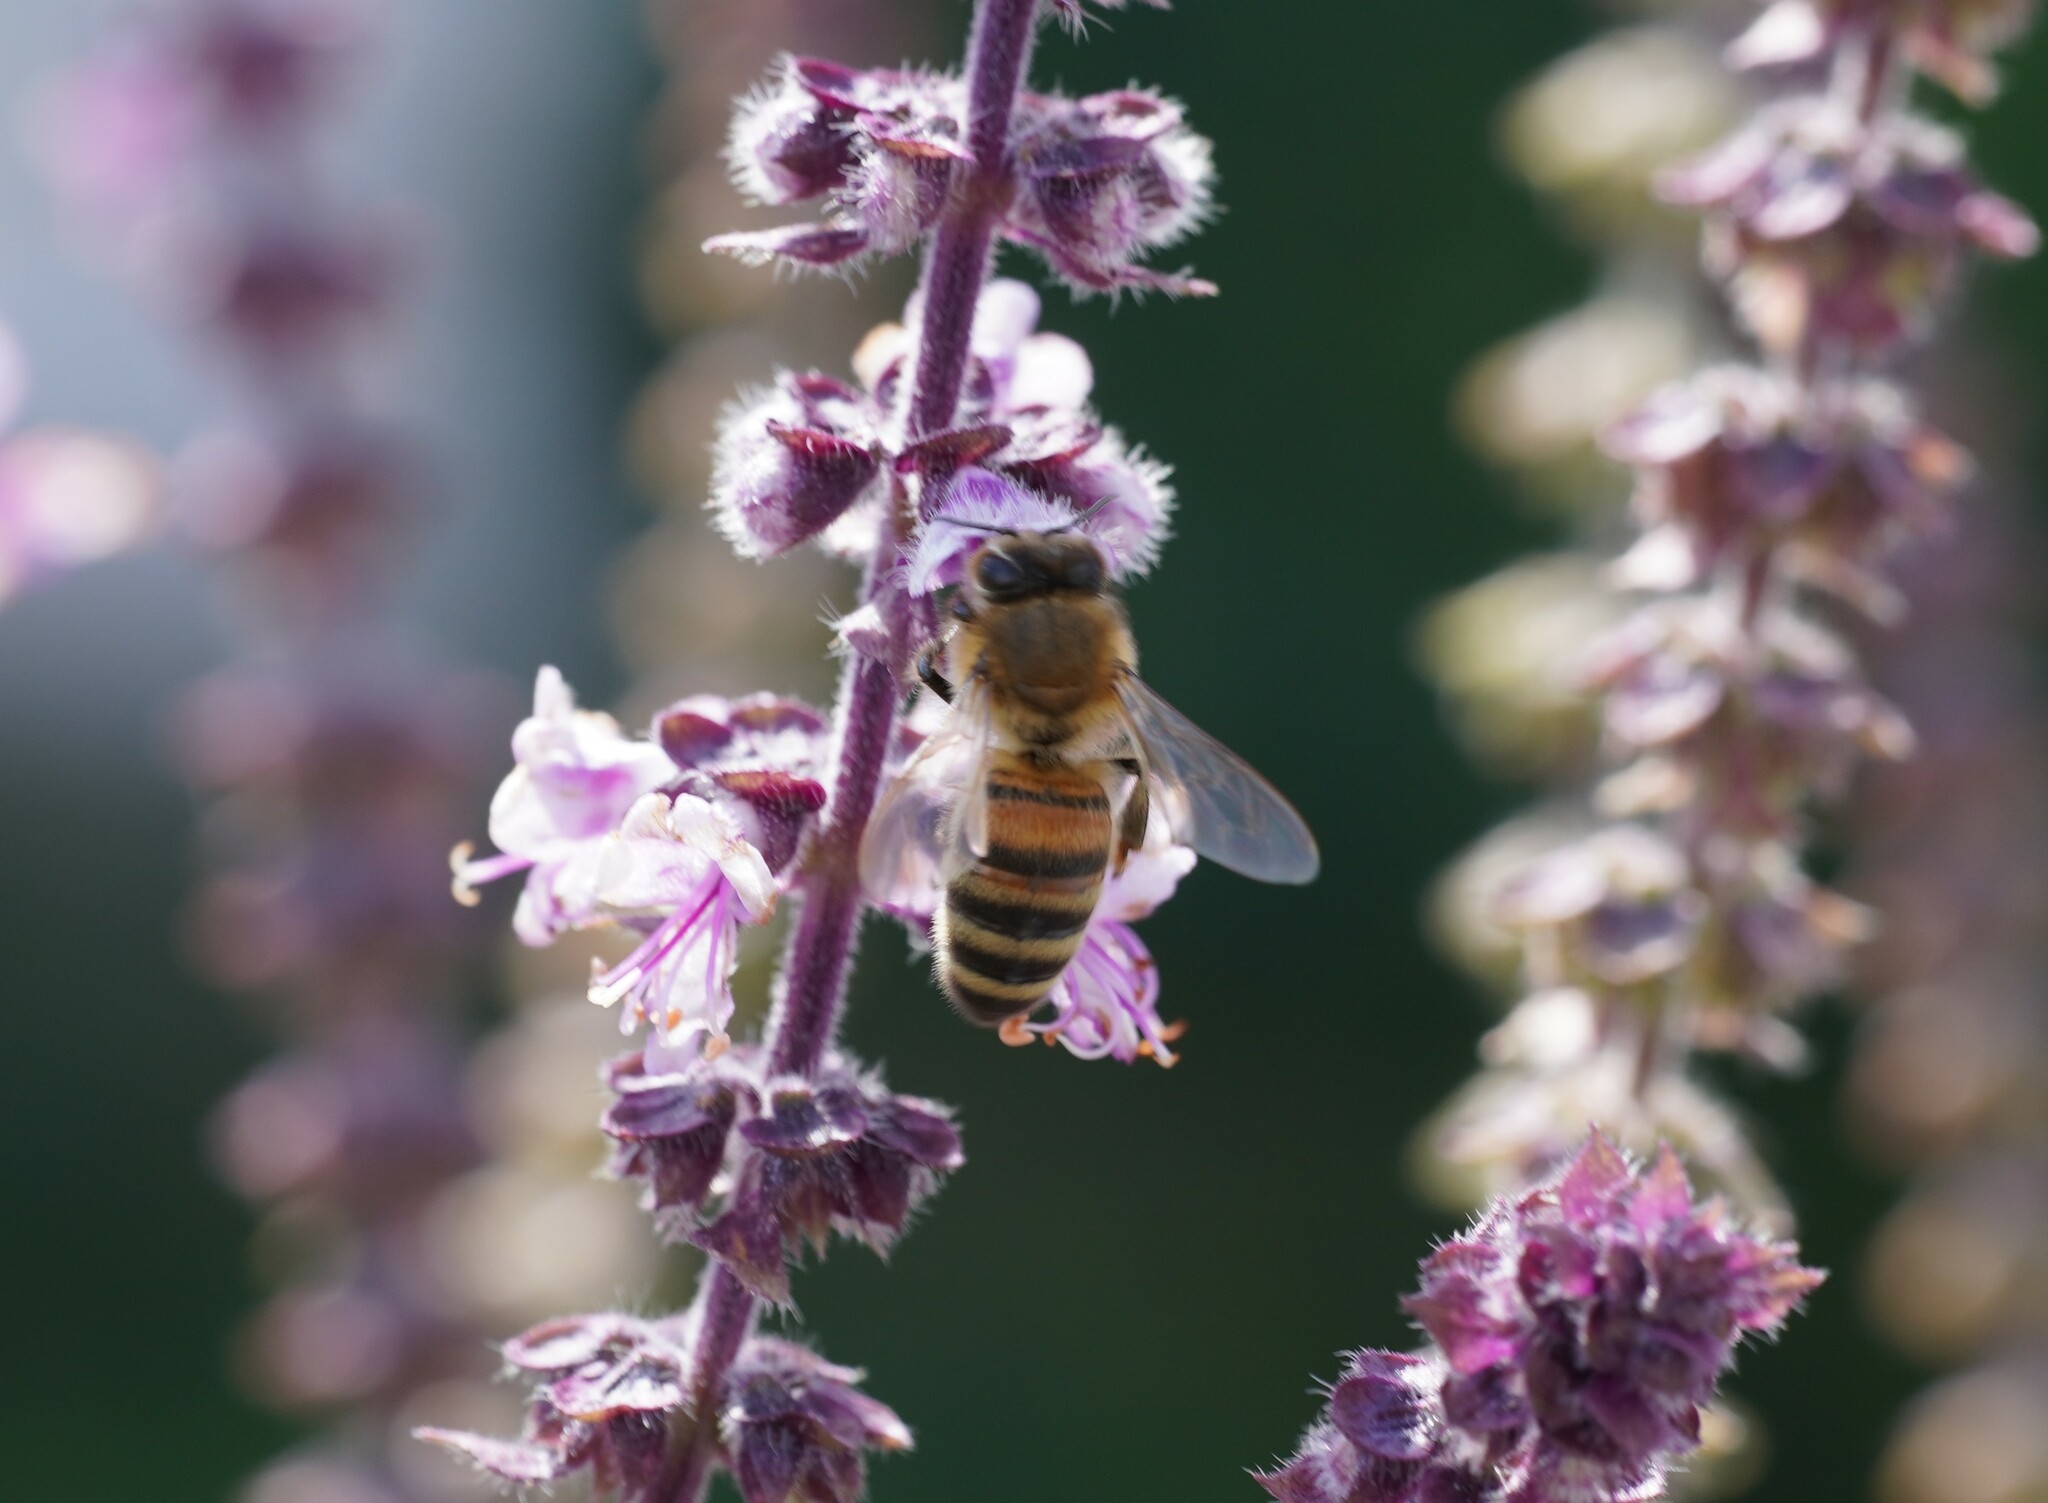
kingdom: Animalia
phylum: Arthropoda
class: Insecta
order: Hymenoptera
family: Apidae
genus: Apis
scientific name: Apis mellifera
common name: Honey bee
